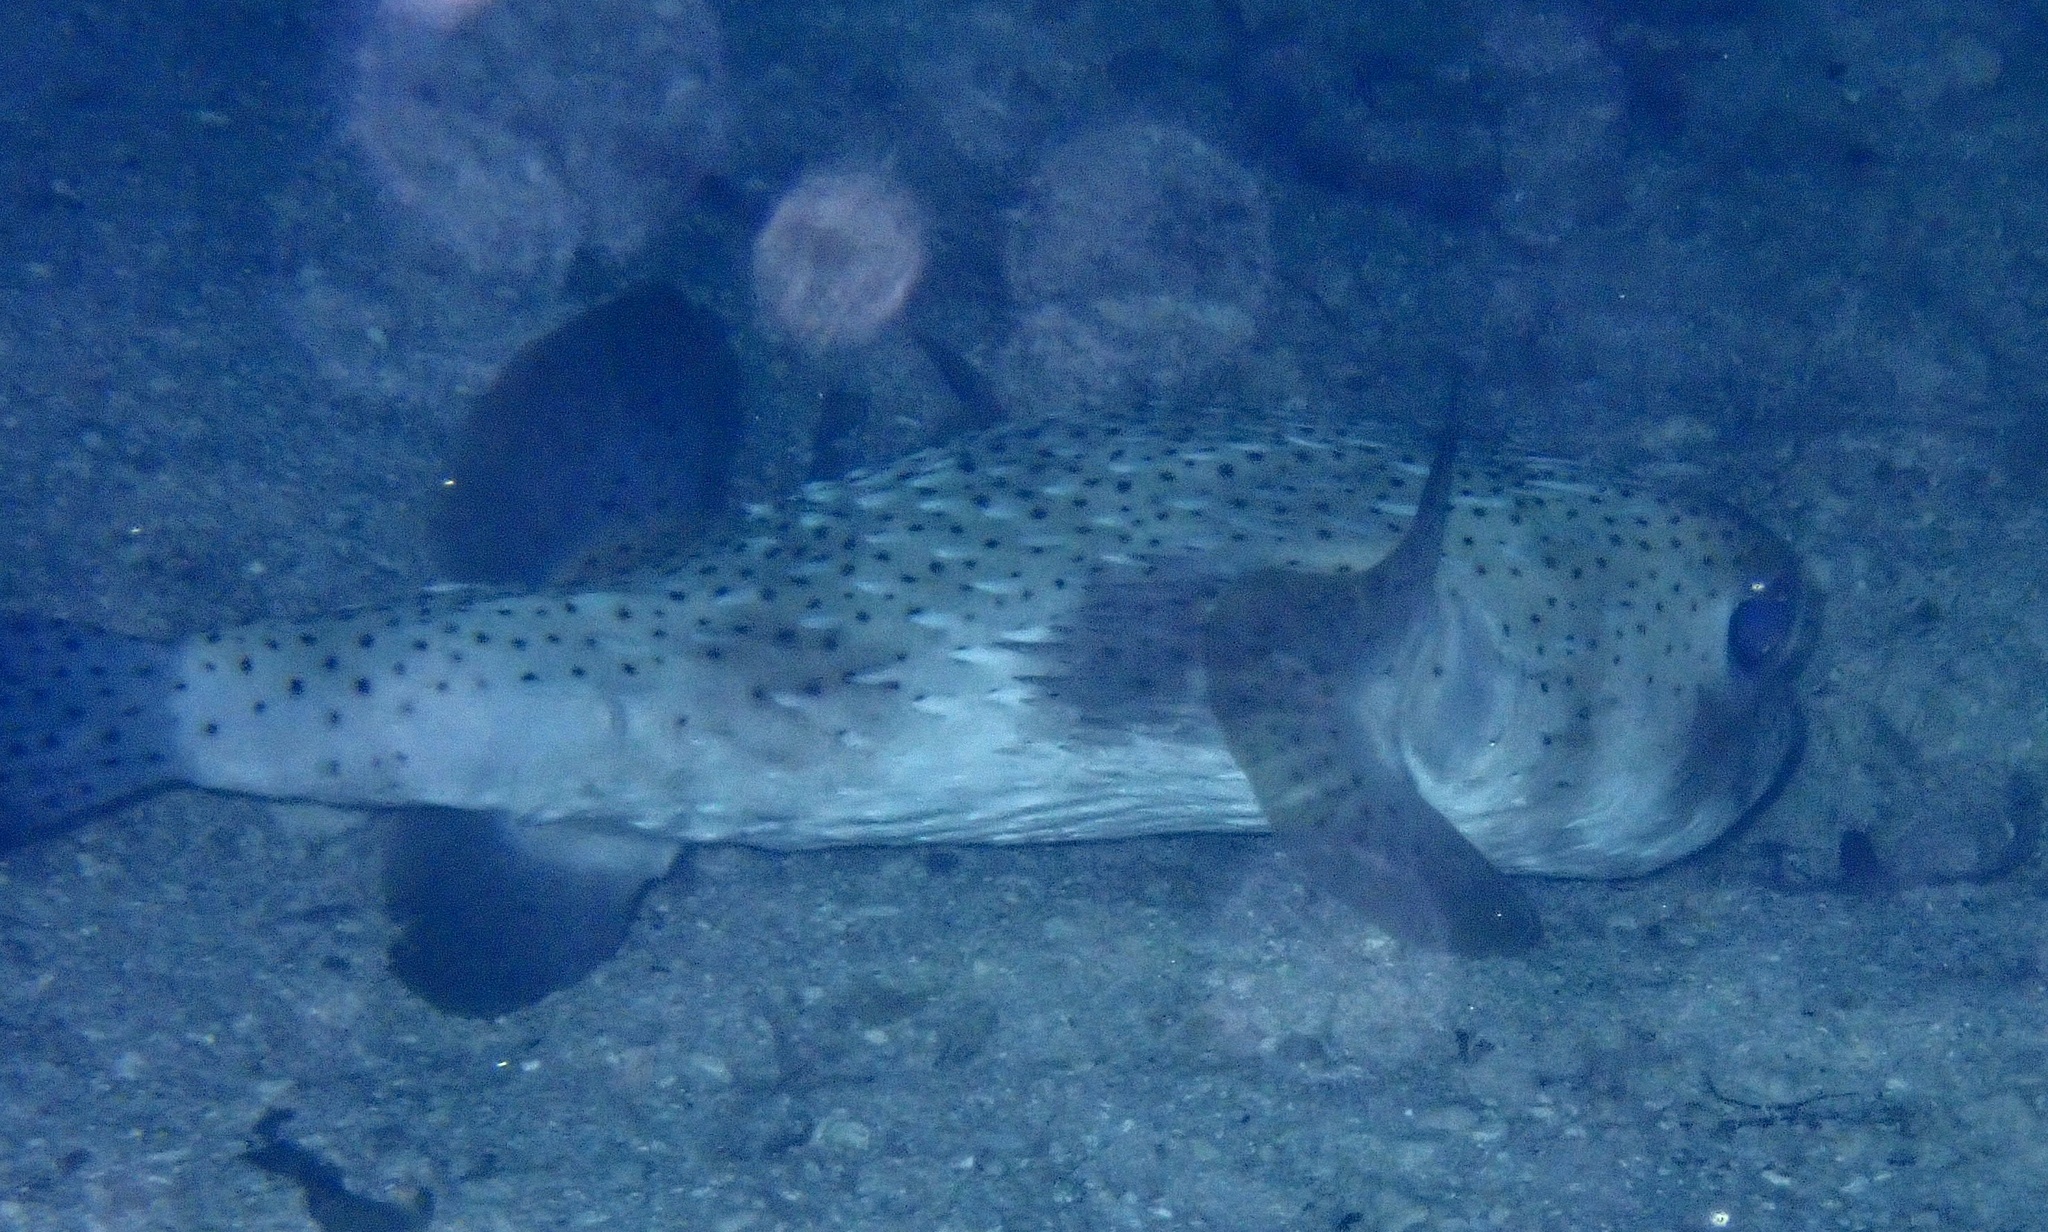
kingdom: Animalia
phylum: Chordata
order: Tetraodontiformes
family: Diodontidae
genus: Diodon
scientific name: Diodon hystrix
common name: Giant porcupinefish
